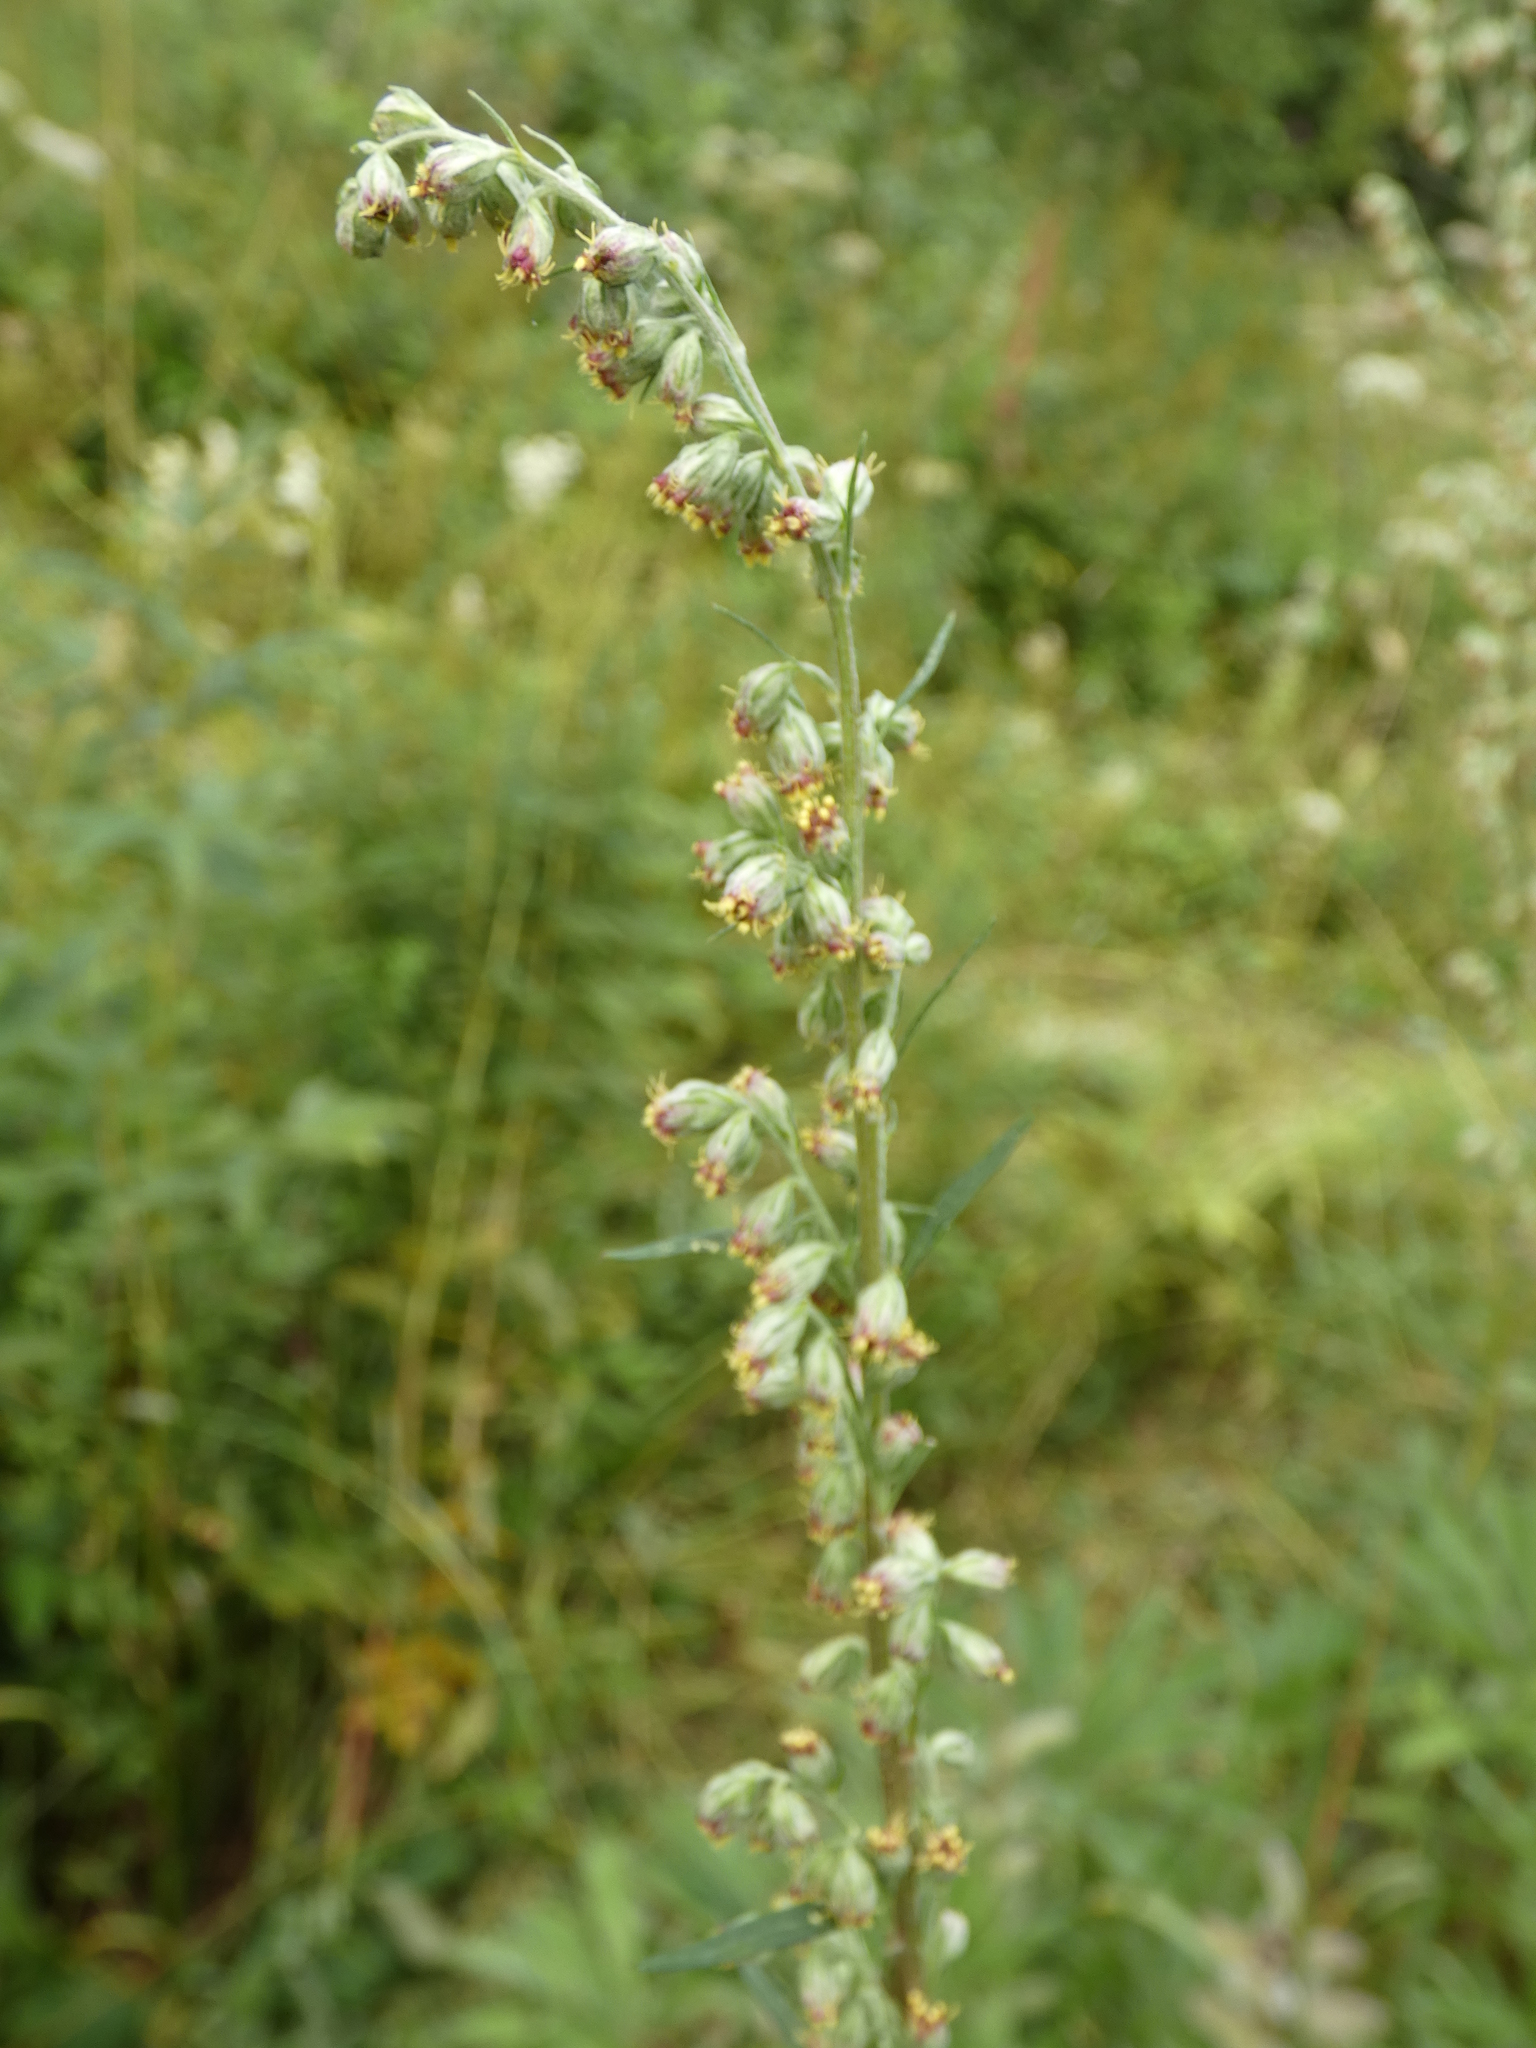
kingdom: Plantae
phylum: Tracheophyta
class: Magnoliopsida
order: Asterales
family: Asteraceae
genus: Artemisia
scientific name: Artemisia vulgaris
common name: Mugwort
